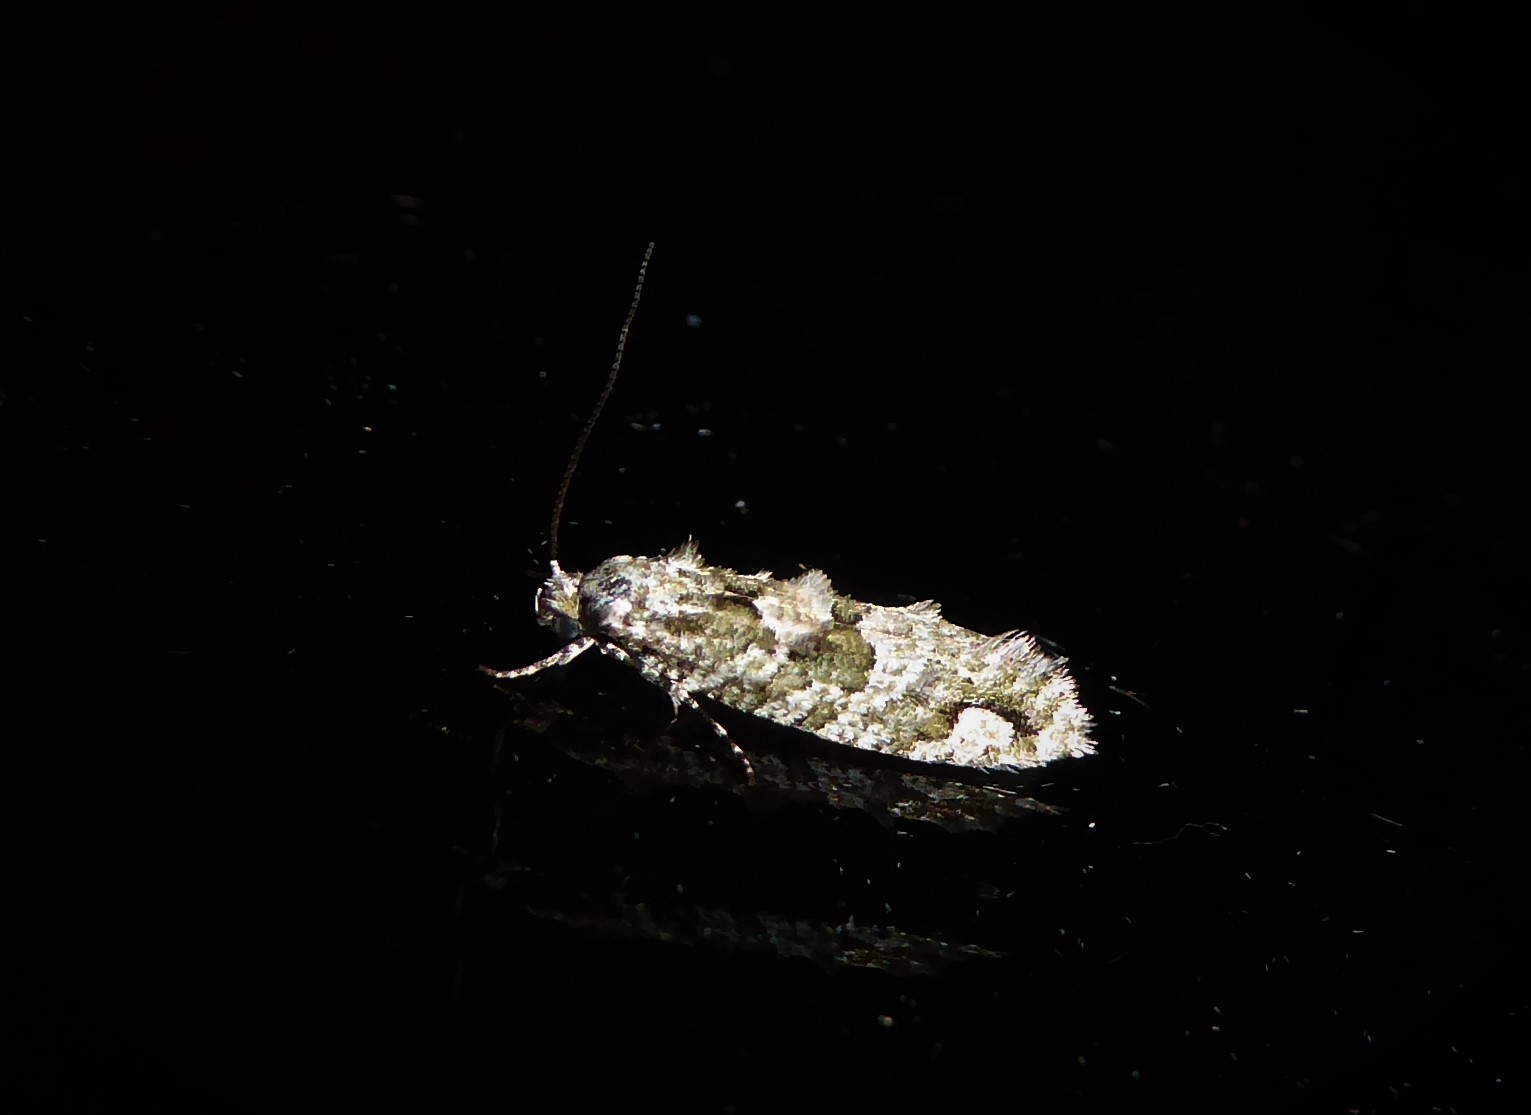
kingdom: Animalia
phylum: Arthropoda
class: Insecta
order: Lepidoptera
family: Tineidae
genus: Lysiphragma
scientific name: Lysiphragma howesii
